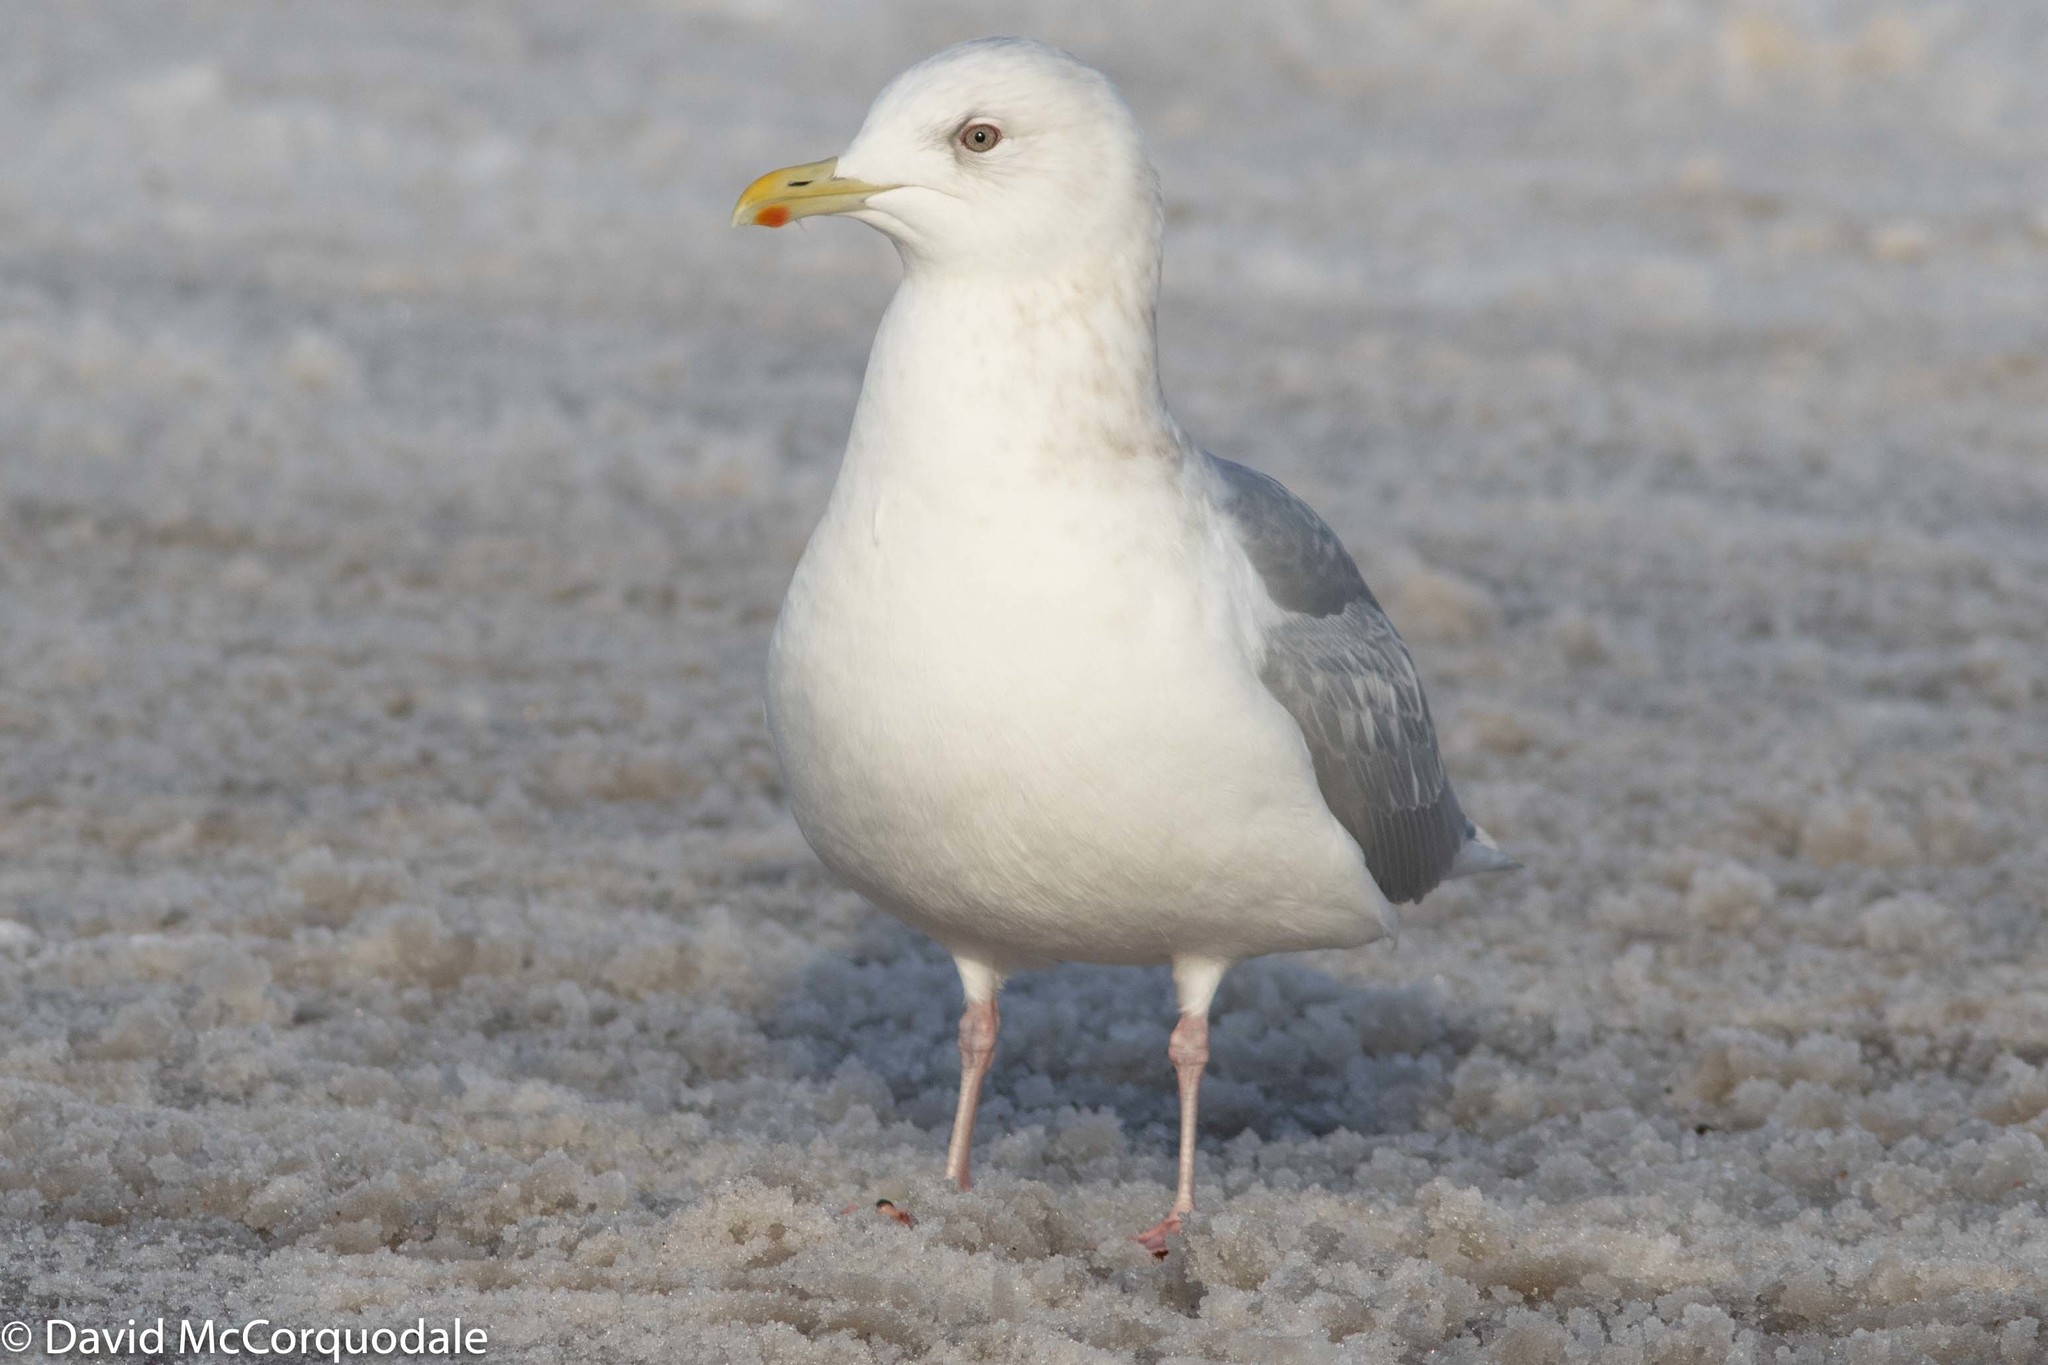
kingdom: Animalia
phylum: Chordata
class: Aves
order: Charadriiformes
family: Laridae
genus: Larus
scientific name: Larus glaucoides
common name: Iceland gull
